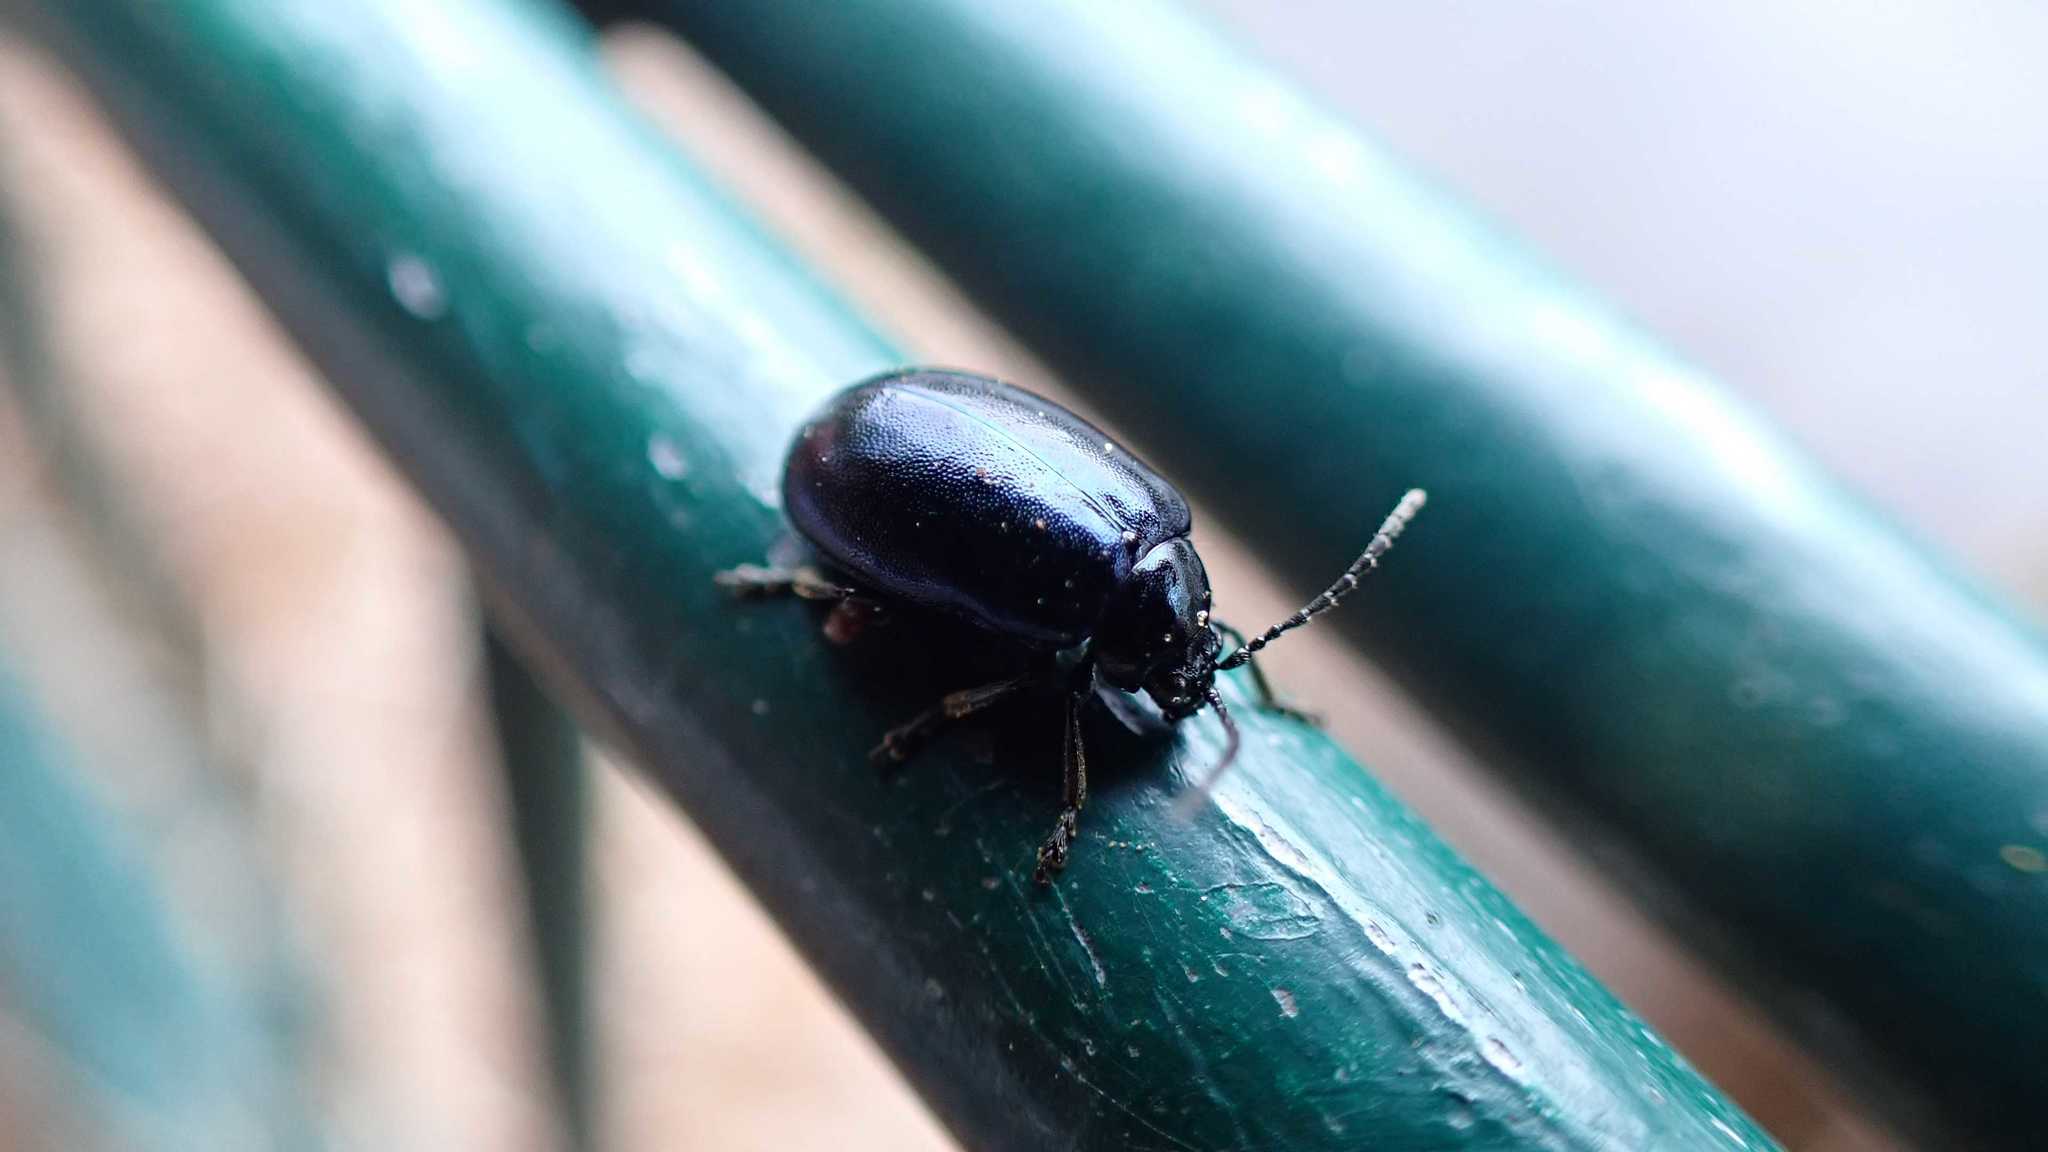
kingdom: Animalia
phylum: Arthropoda
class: Insecta
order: Coleoptera
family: Chrysomelidae
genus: Agelastica
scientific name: Agelastica alni
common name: Alder leaf beetle
